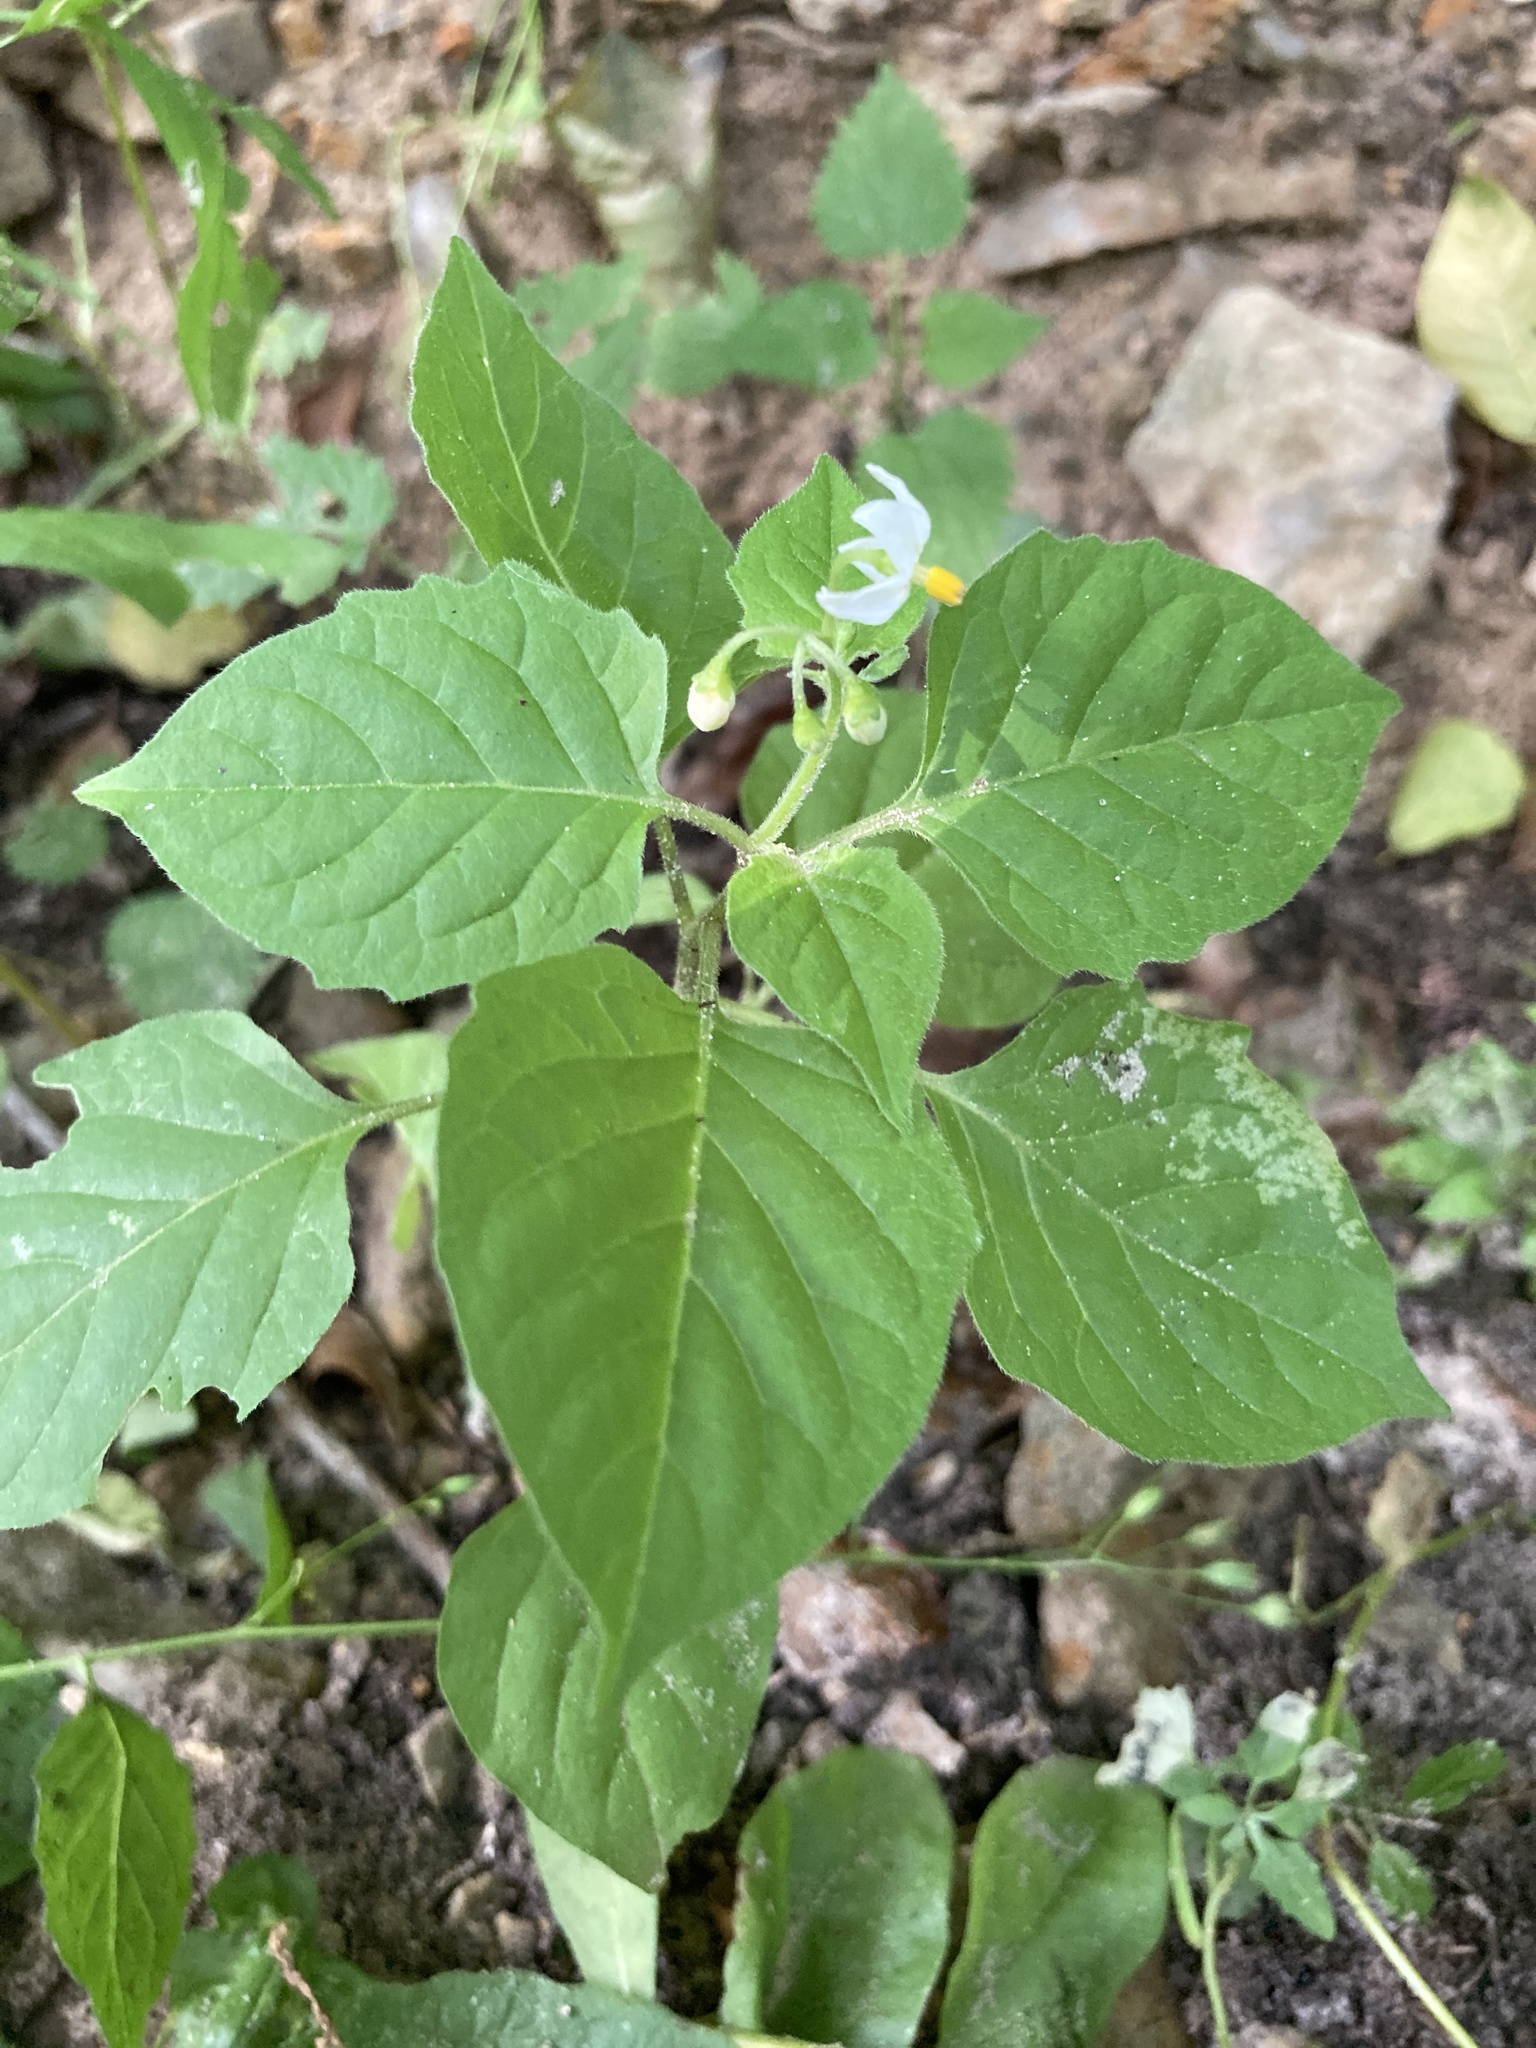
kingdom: Plantae
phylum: Tracheophyta
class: Magnoliopsida
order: Solanales
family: Solanaceae
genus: Solanum
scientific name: Solanum nigrum
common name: Black nightshade
